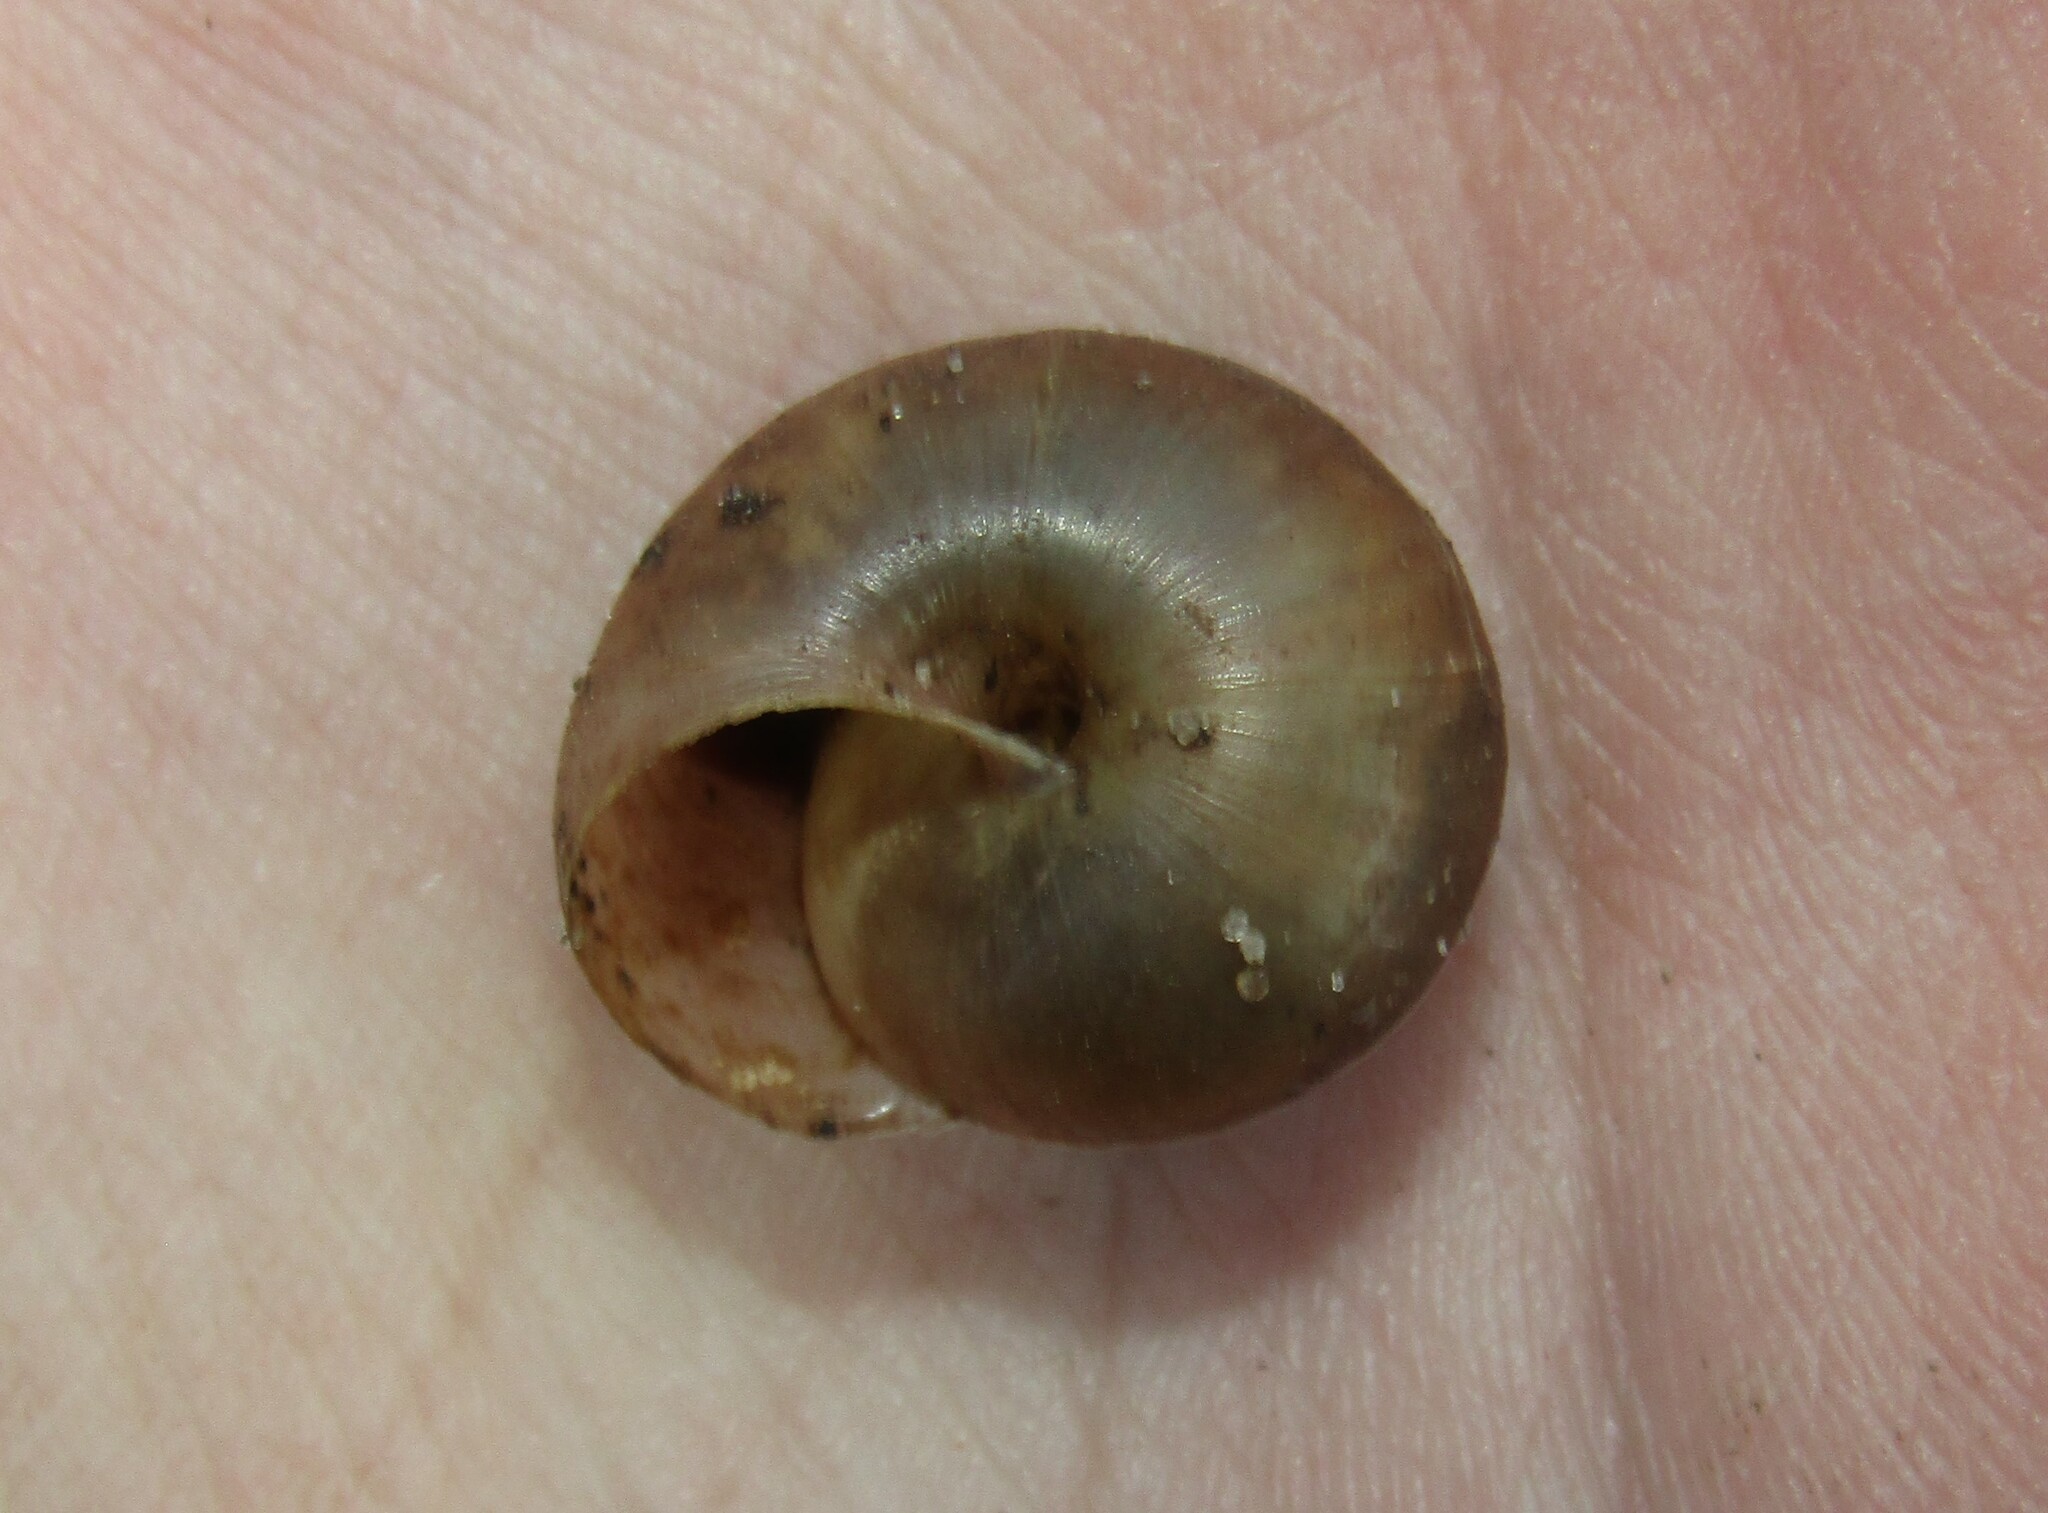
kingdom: Animalia
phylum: Mollusca
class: Gastropoda
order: Stylommatophora
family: Camaenidae
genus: Fruticicola
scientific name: Fruticicola fruticum
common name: Bush snail
